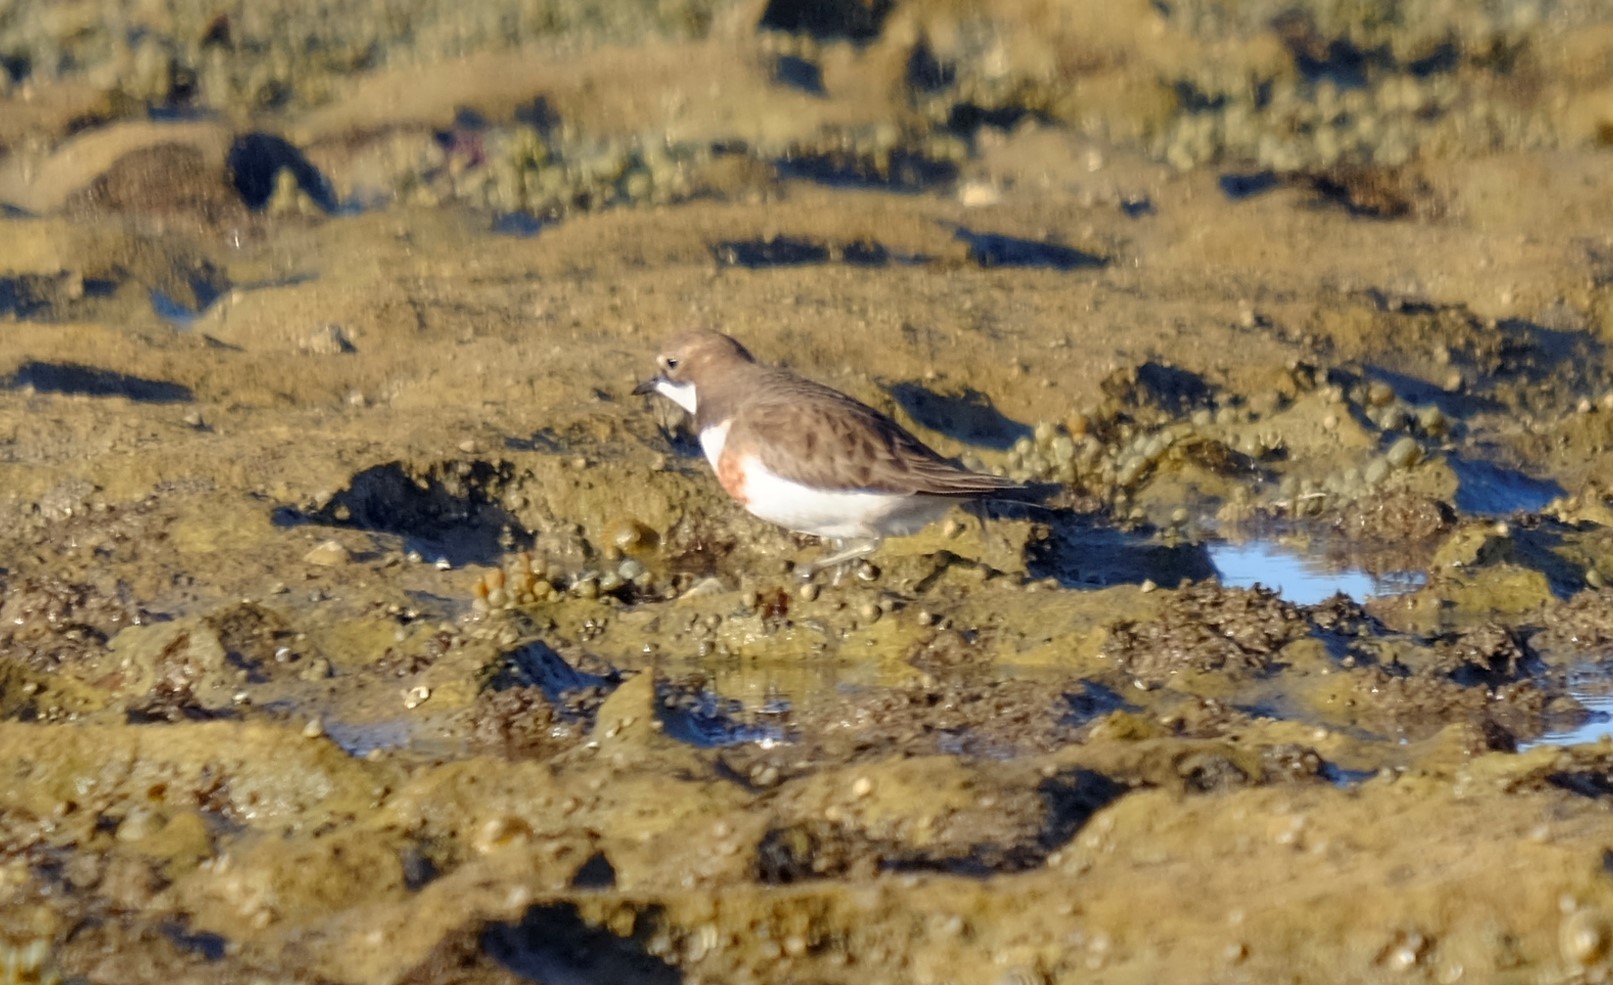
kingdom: Animalia
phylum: Chordata
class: Aves
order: Charadriiformes
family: Charadriidae
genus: Anarhynchus
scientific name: Anarhynchus
